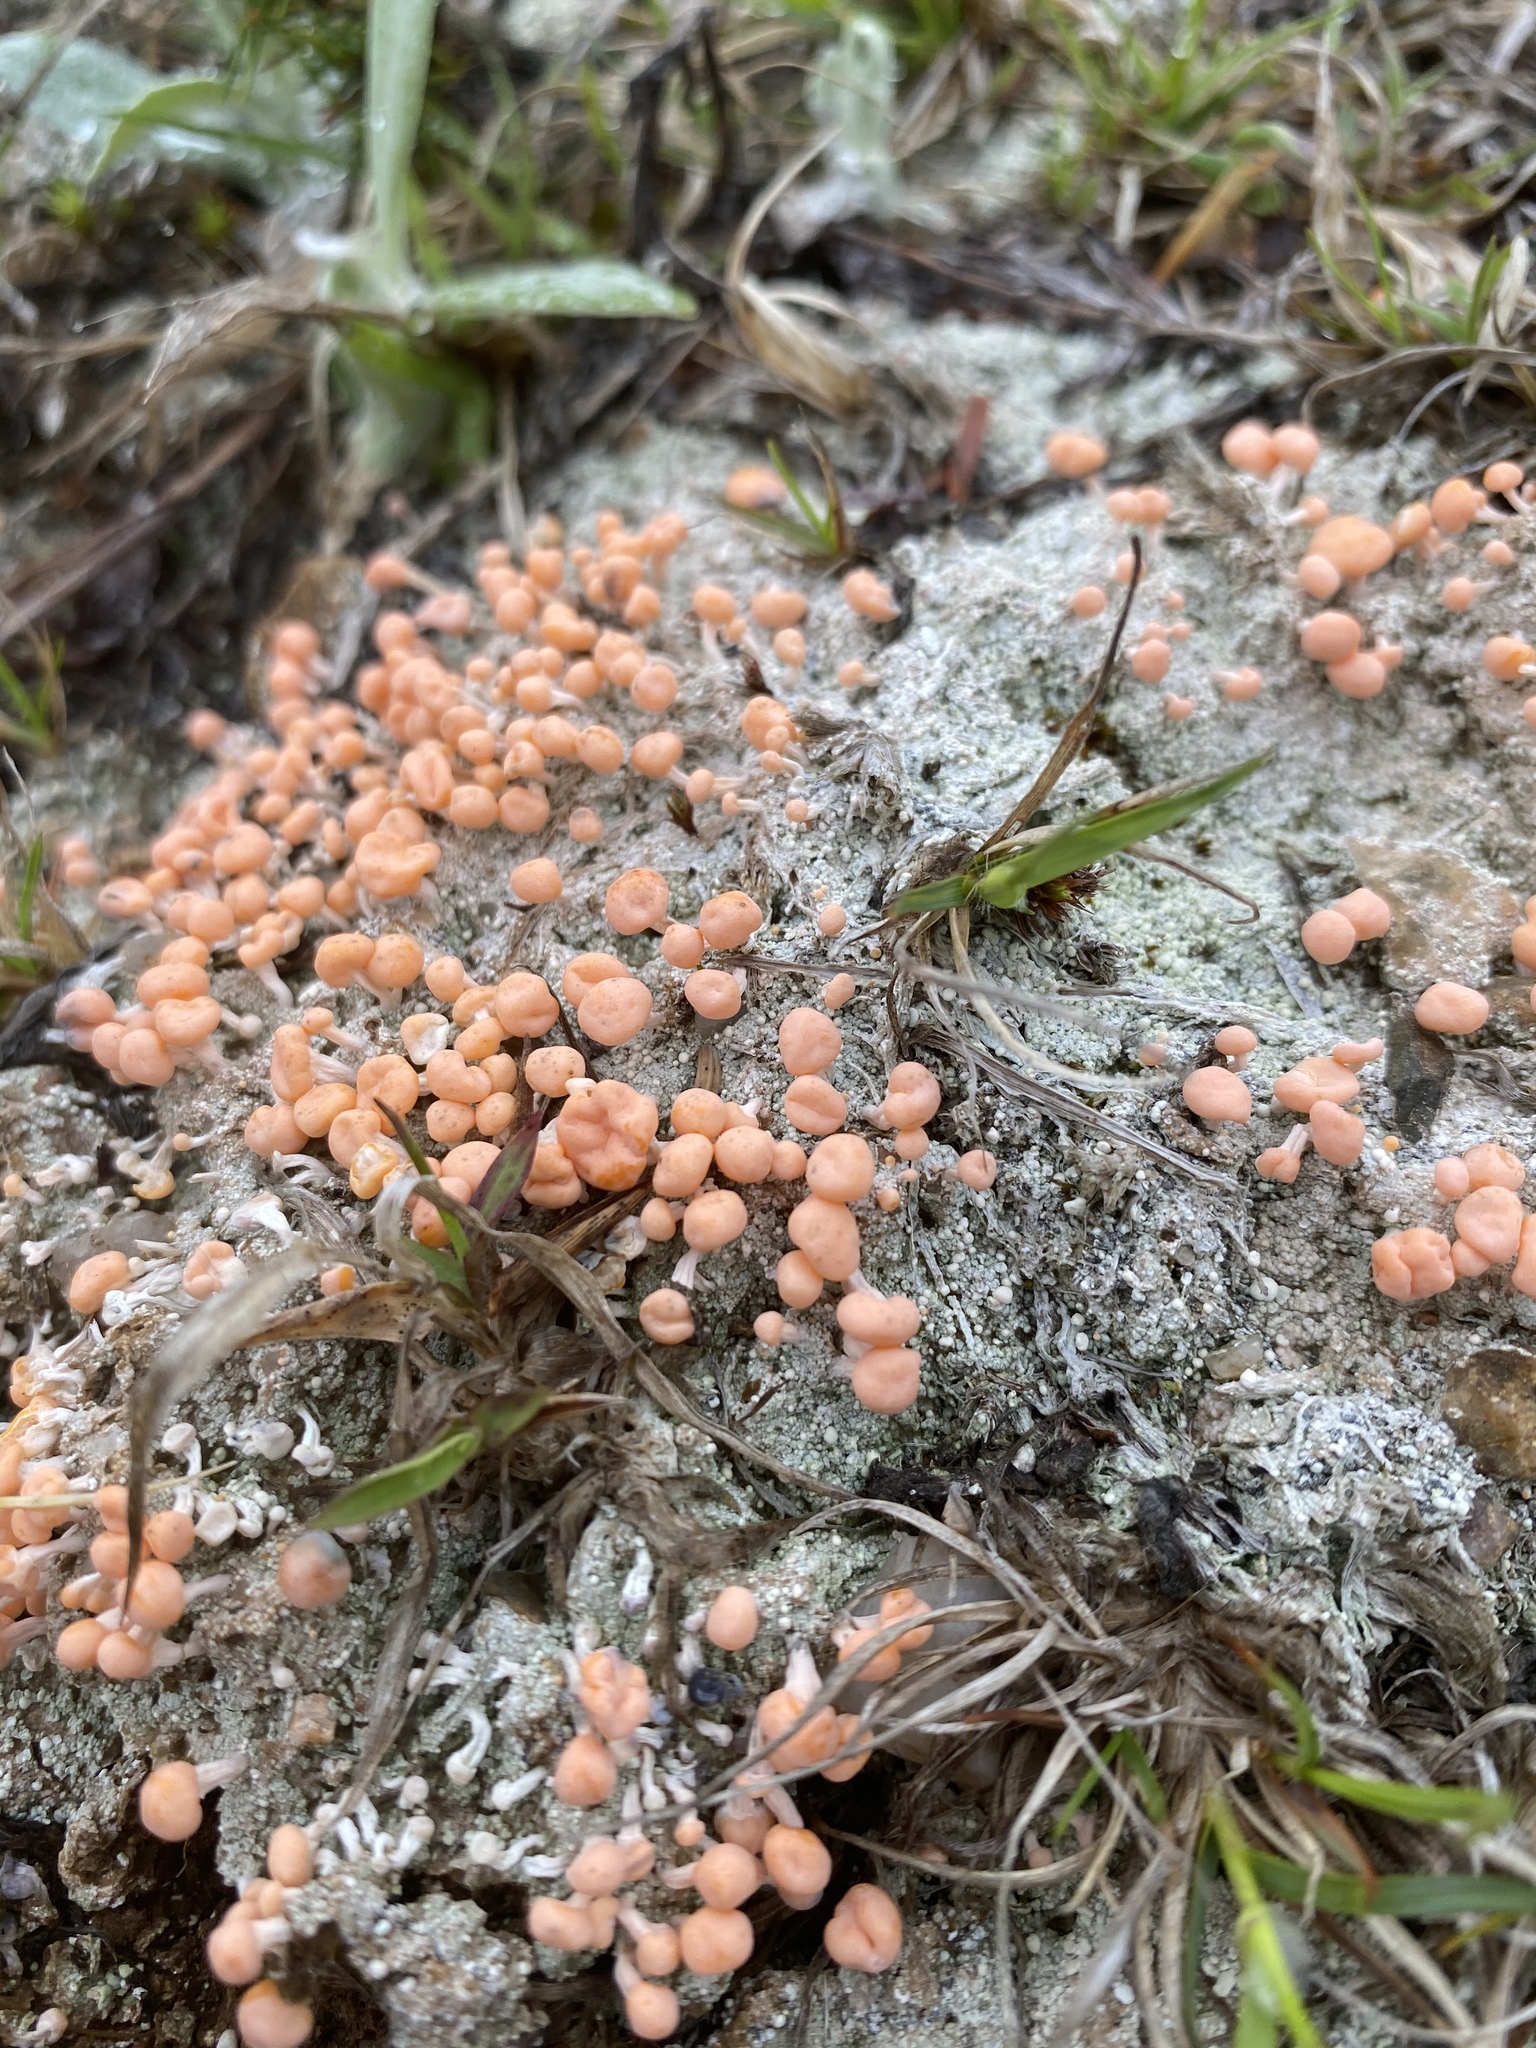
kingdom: Fungi
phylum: Ascomycota
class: Lecanoromycetes
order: Pertusariales
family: Icmadophilaceae
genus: Dibaeis
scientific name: Dibaeis baeomyces
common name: Pink earth lichen
